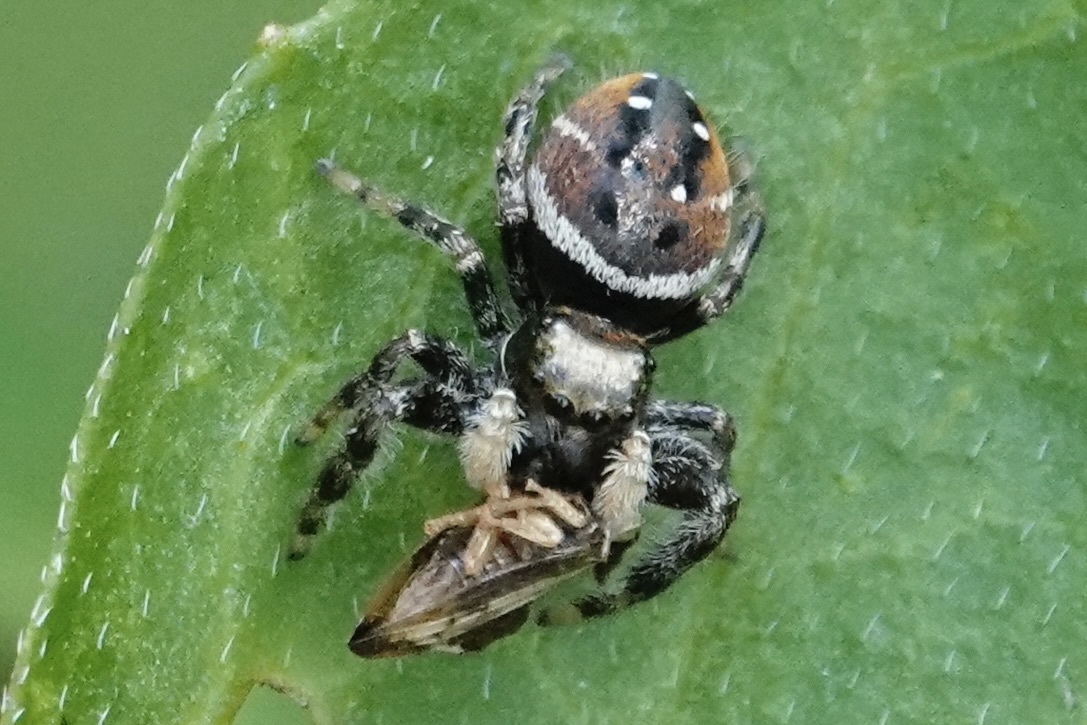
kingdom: Animalia
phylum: Arthropoda
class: Arachnida
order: Araneae
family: Salticidae
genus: Phidippus
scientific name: Phidippus clarus
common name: Brilliant jumping spider
